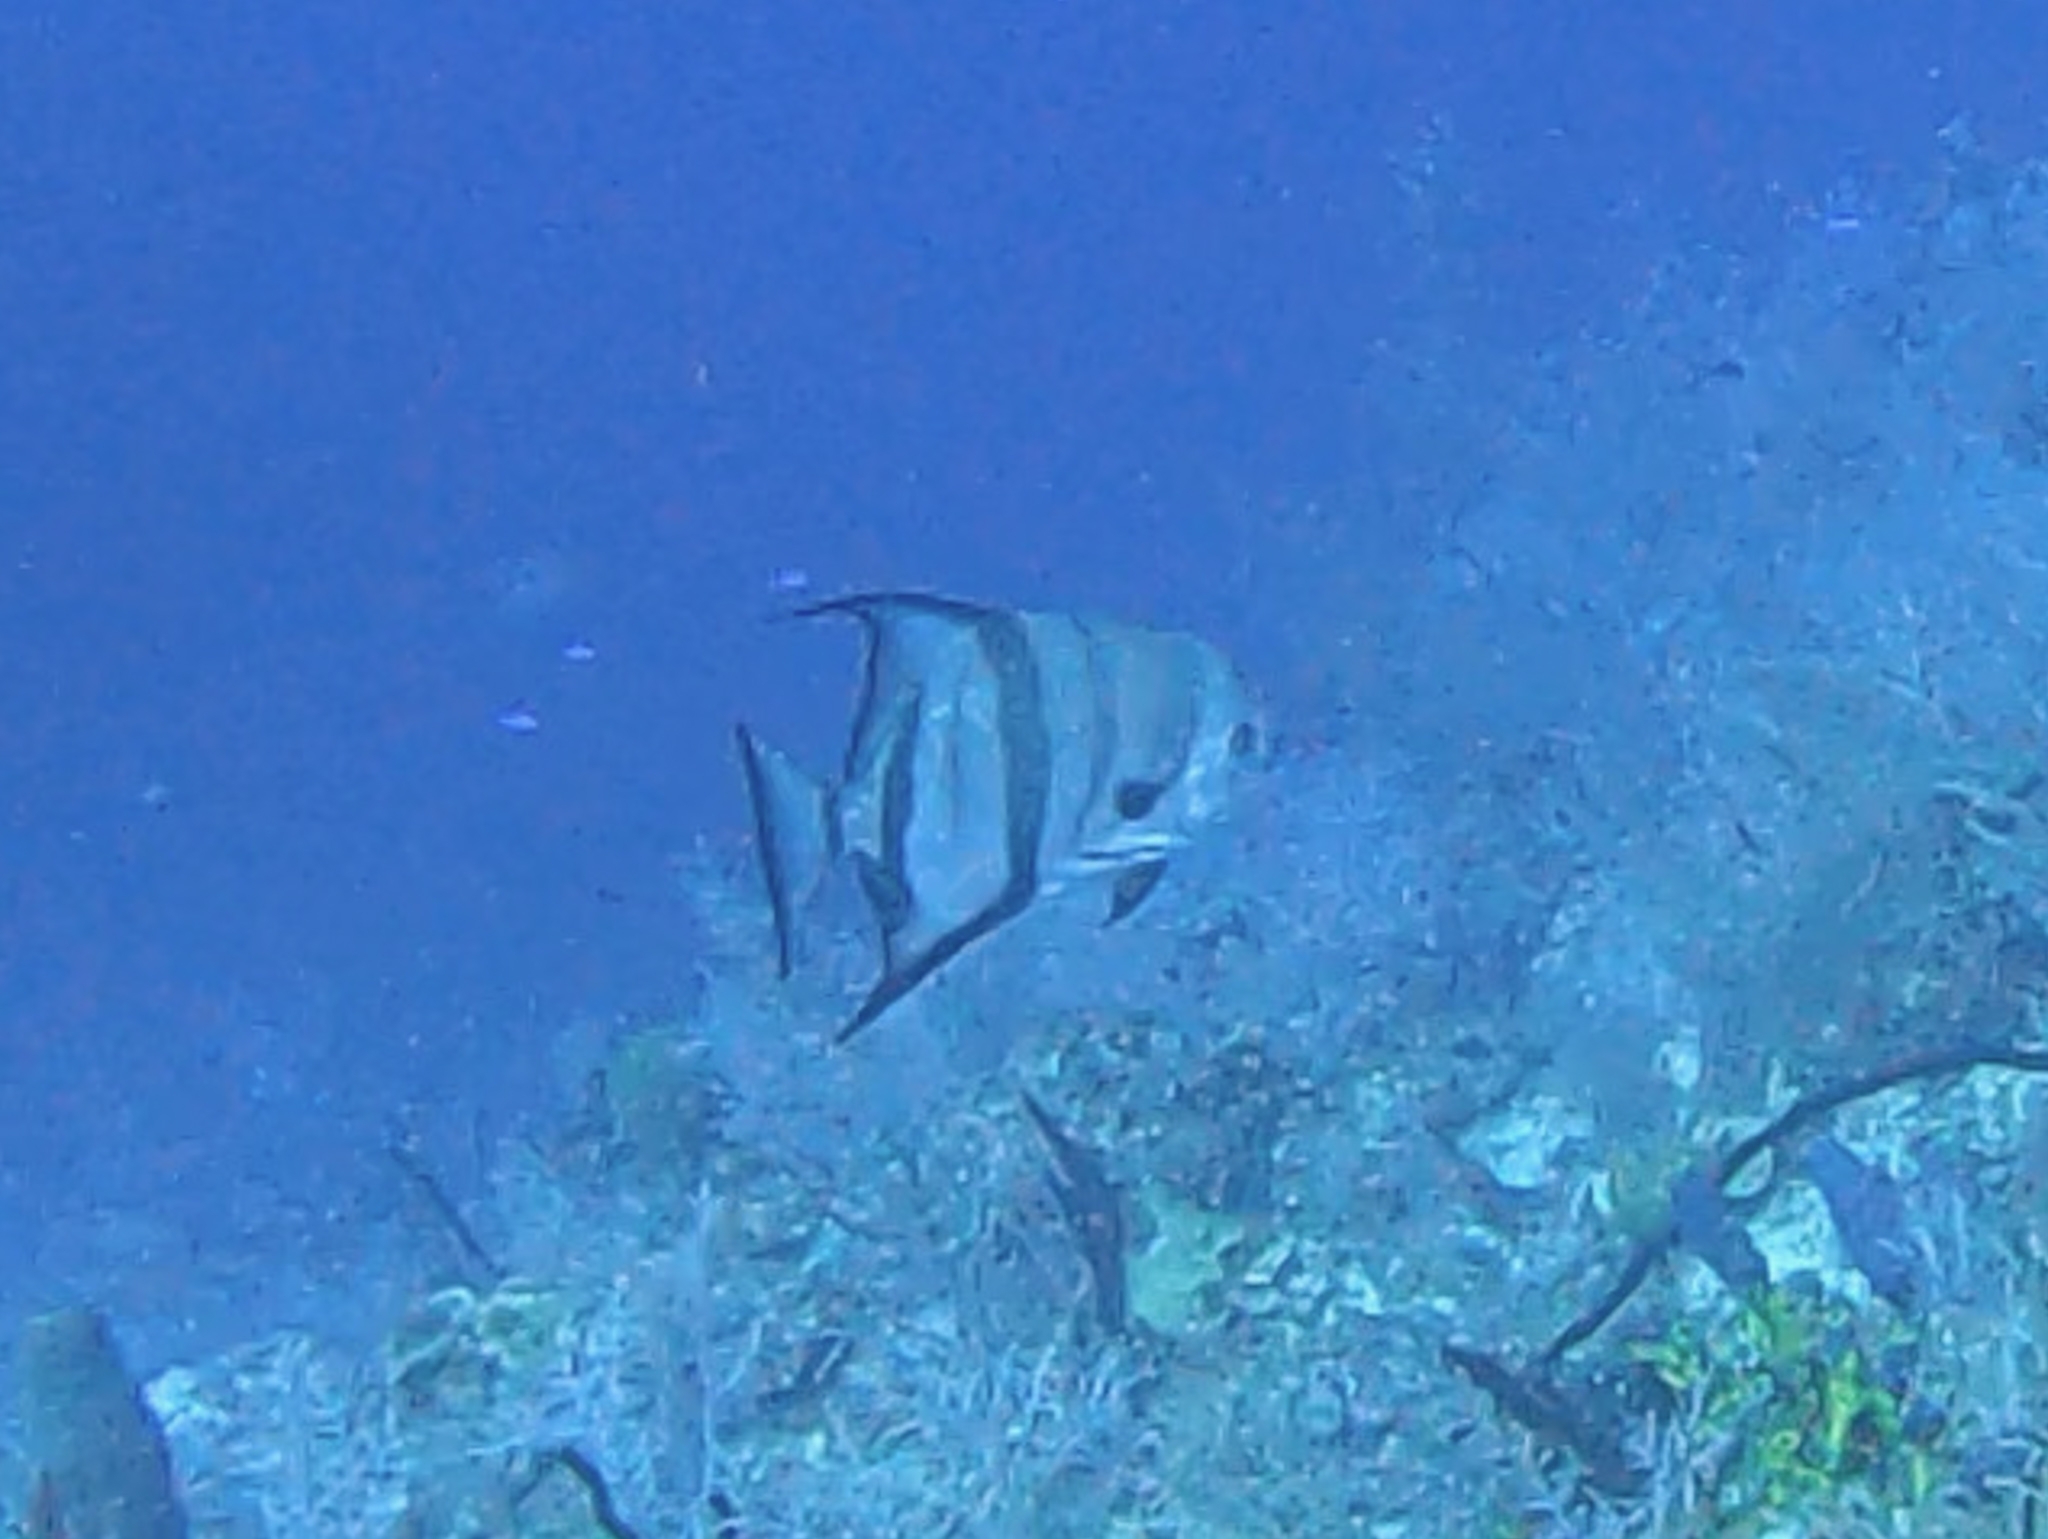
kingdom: Animalia
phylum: Chordata
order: Perciformes
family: Ephippidae
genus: Chaetodipterus
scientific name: Chaetodipterus faber
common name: Ocean cobbler
